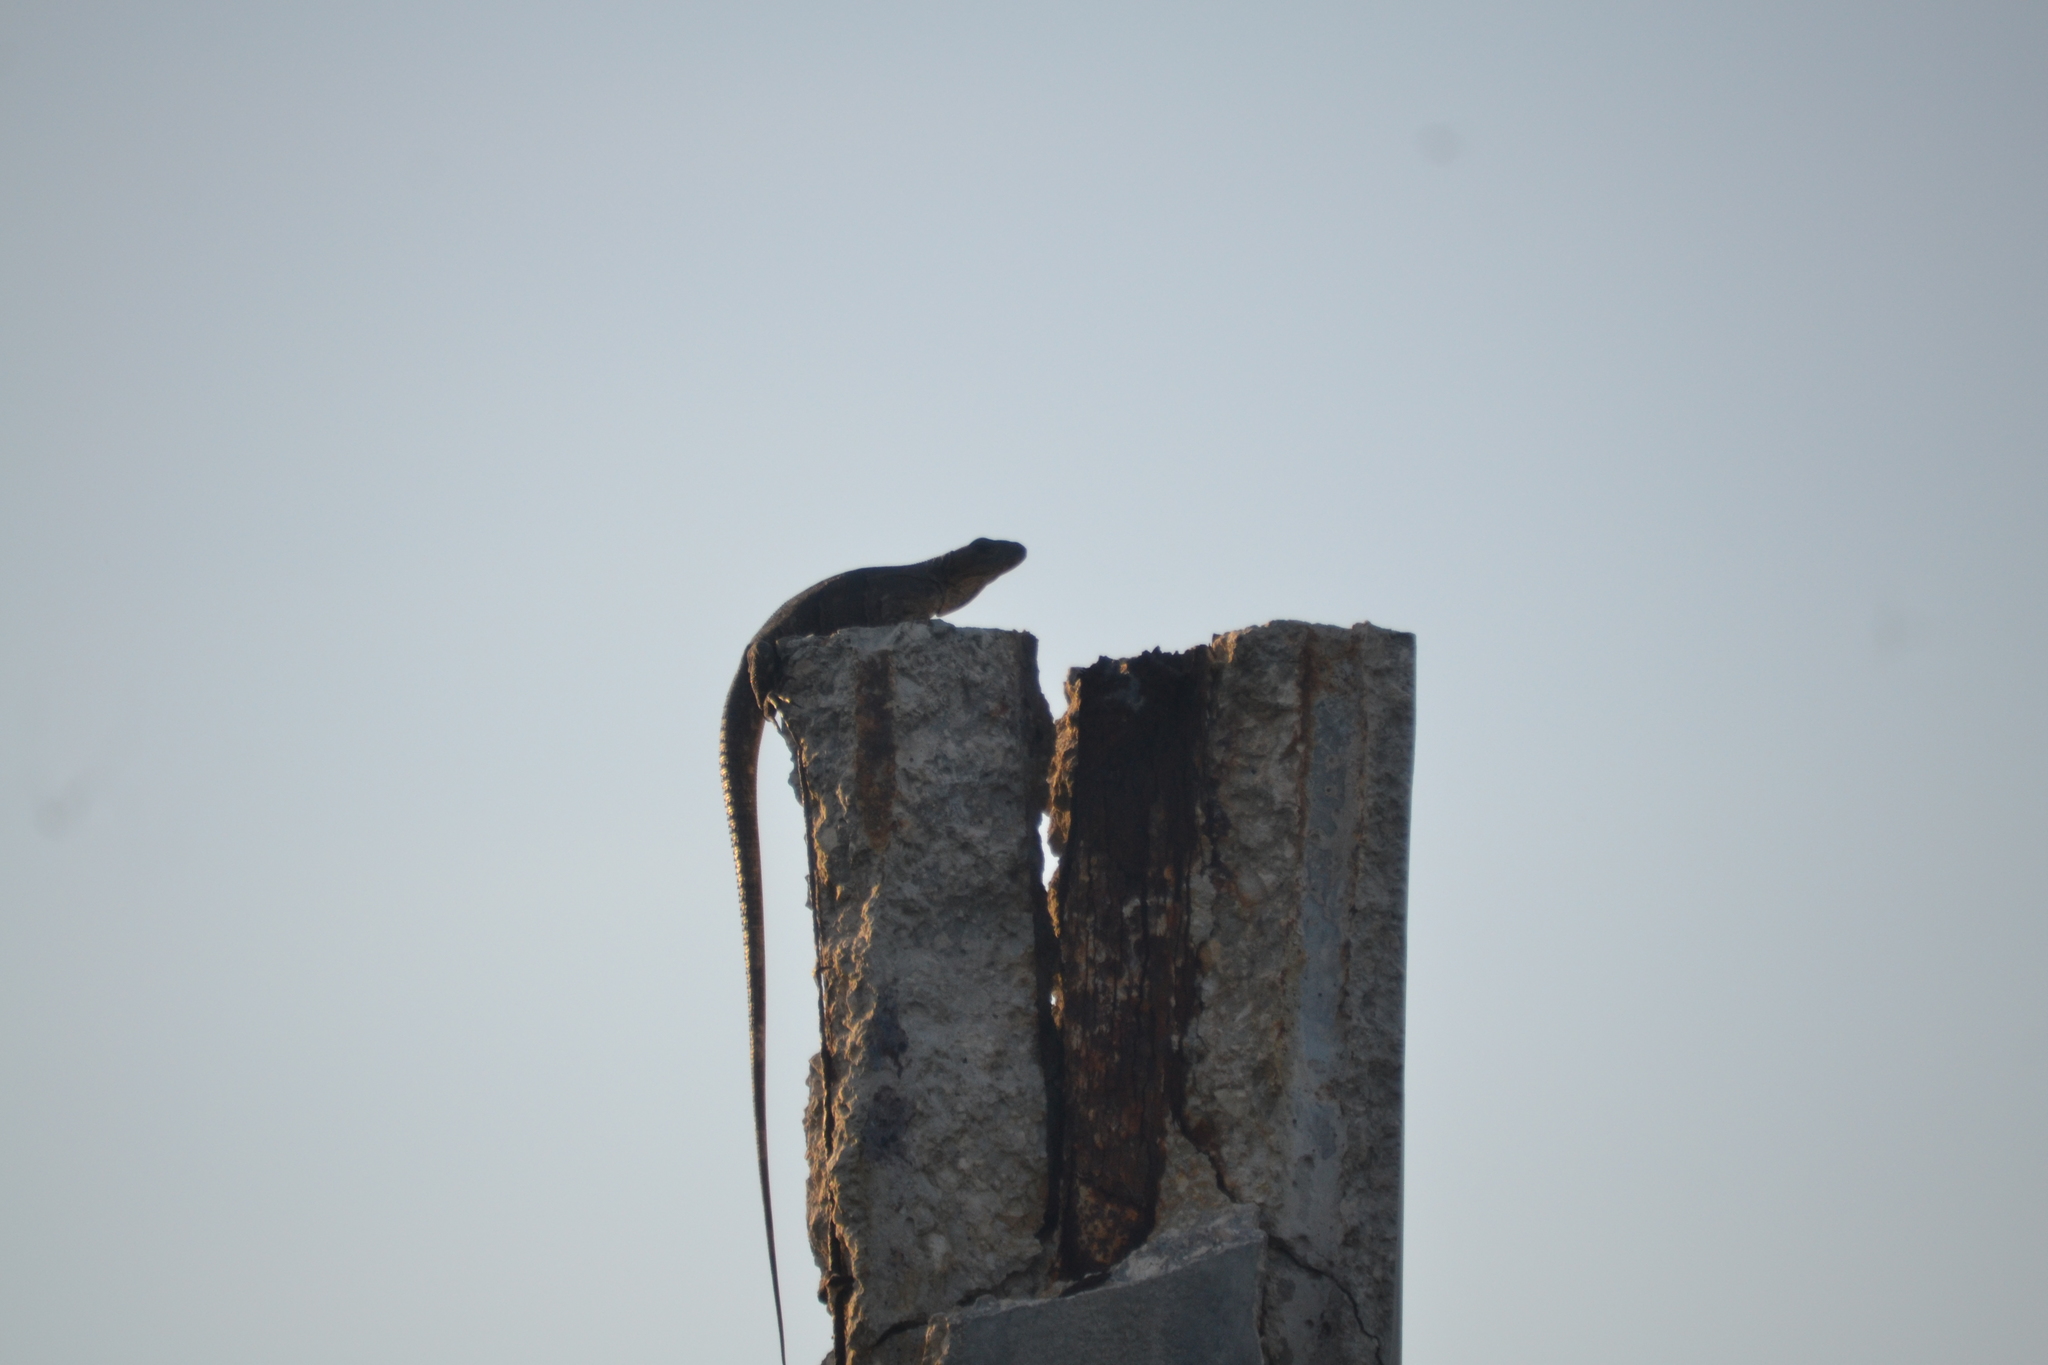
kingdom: Animalia
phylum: Chordata
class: Squamata
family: Iguanidae
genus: Ctenosaura
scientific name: Ctenosaura similis
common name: Black spiny-tailed iguana
